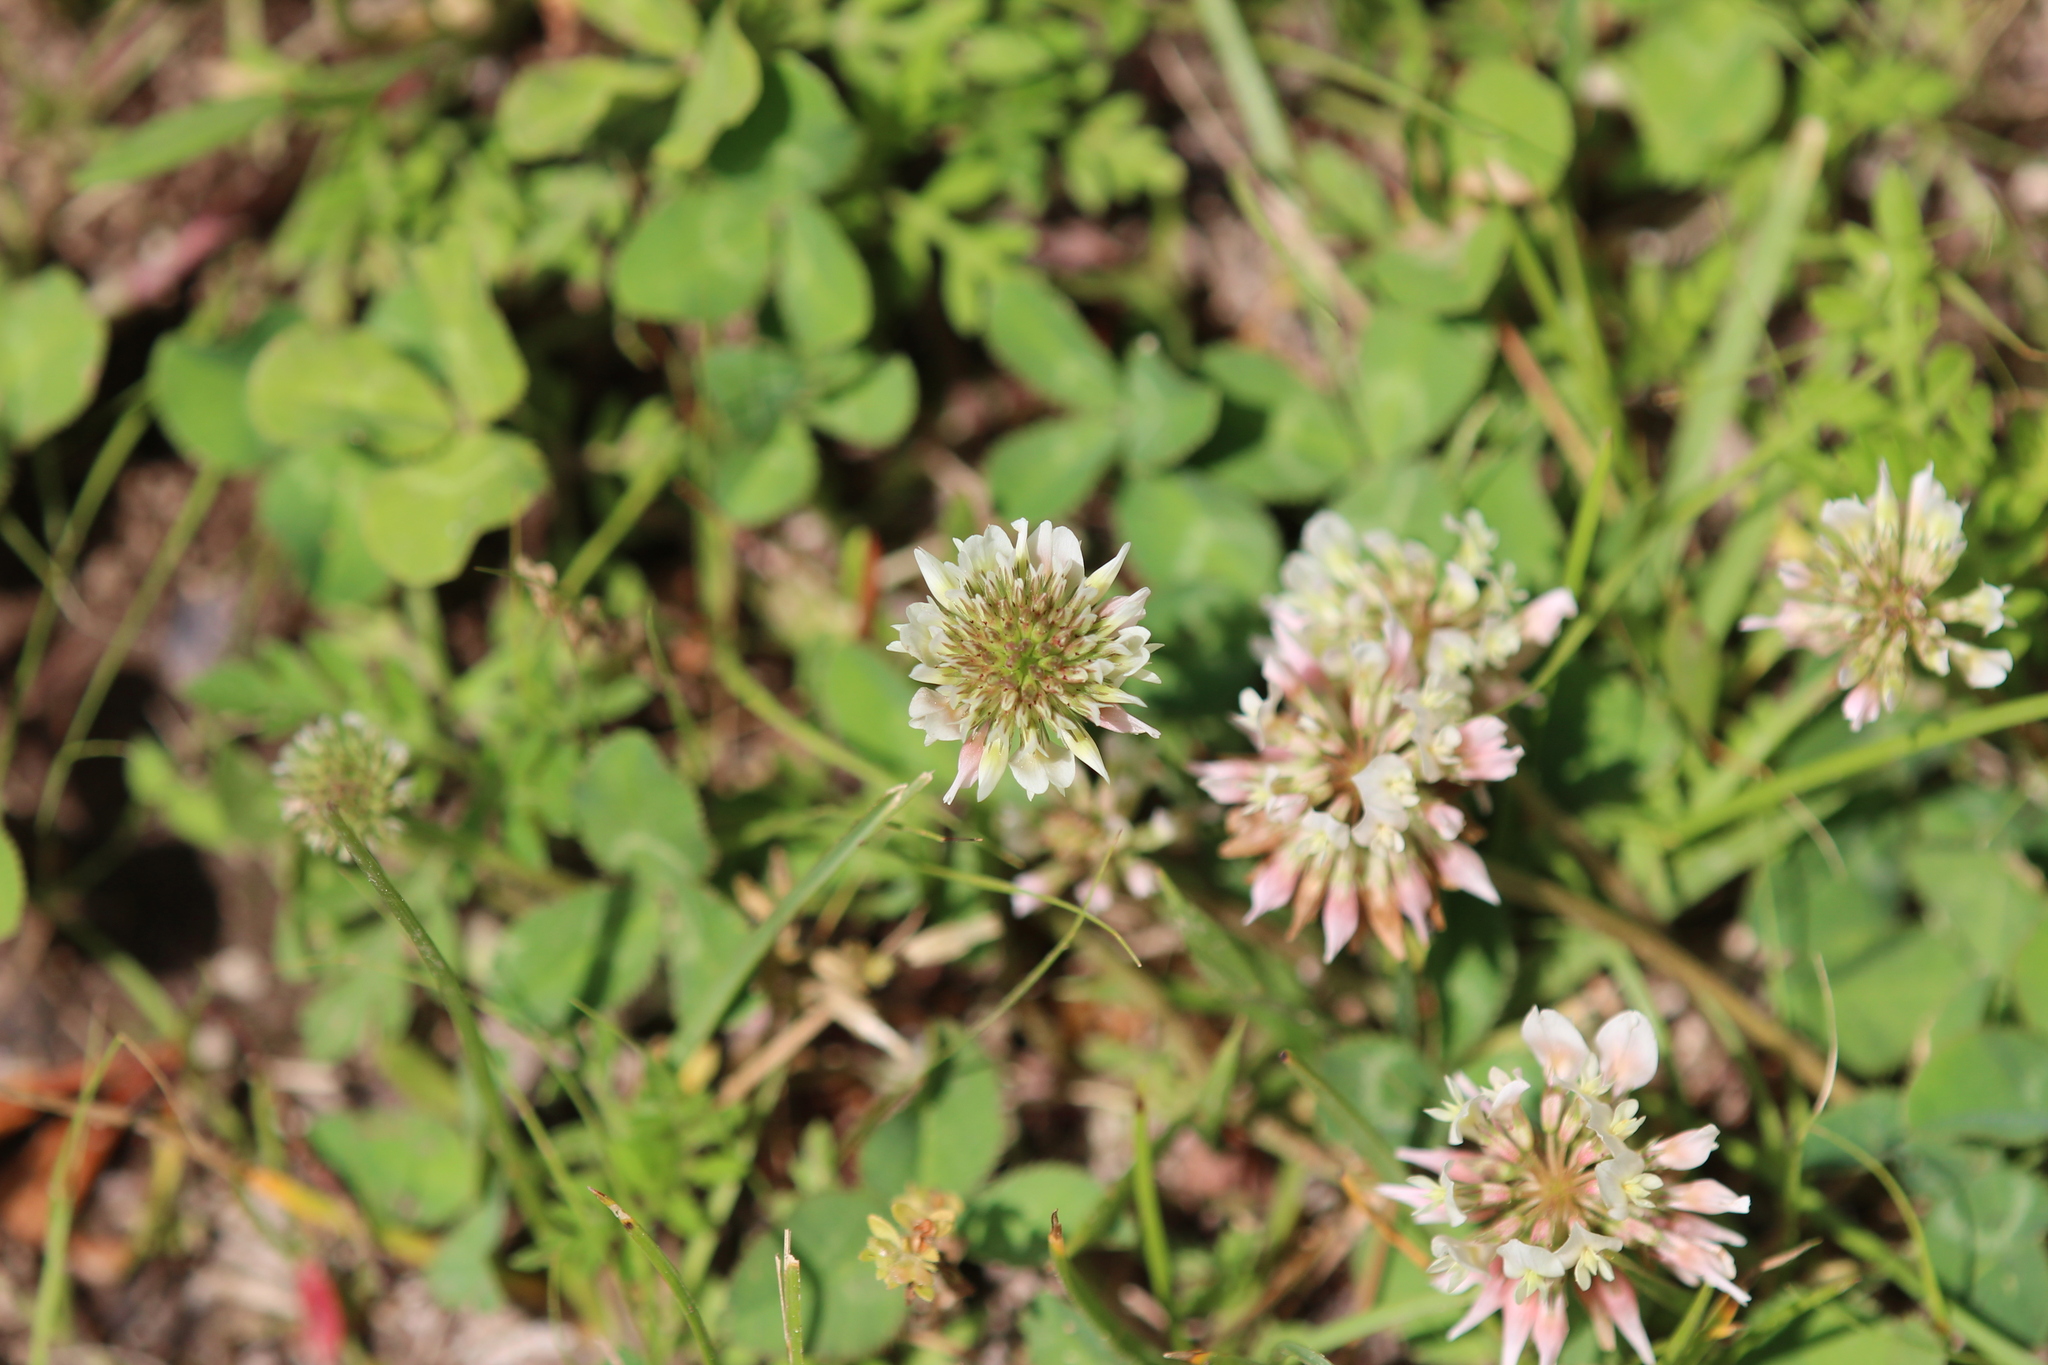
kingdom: Plantae
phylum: Tracheophyta
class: Magnoliopsida
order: Fabales
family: Fabaceae
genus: Trifolium
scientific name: Trifolium repens
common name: White clover
